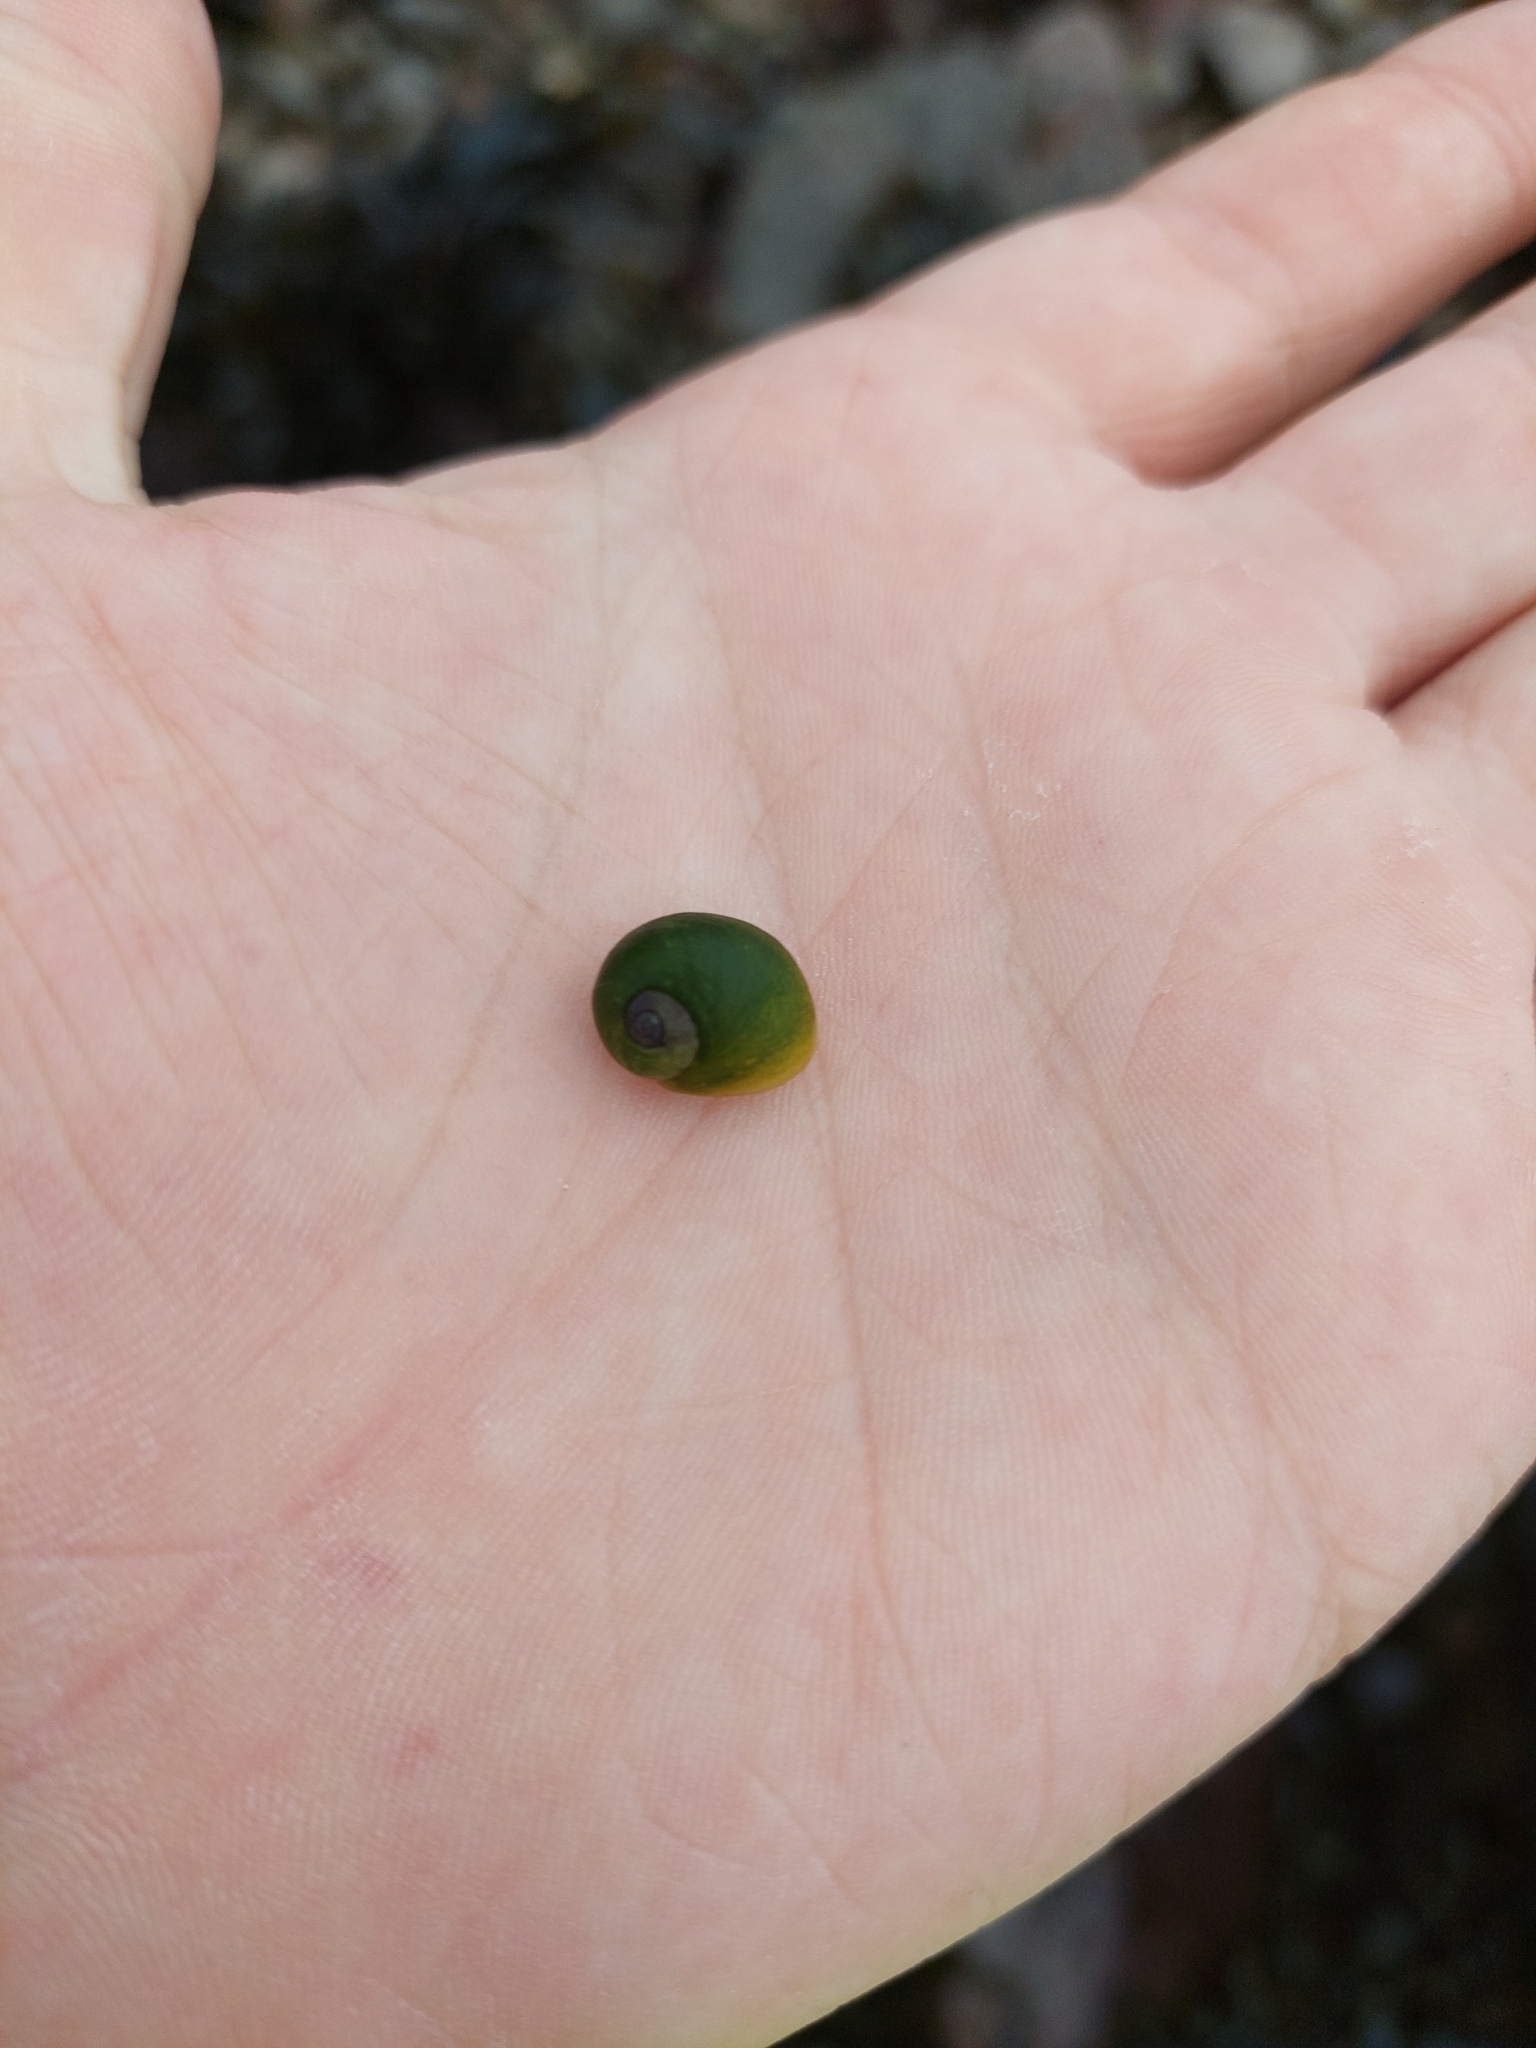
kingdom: Animalia
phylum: Mollusca
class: Gastropoda
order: Littorinimorpha
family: Littorinidae
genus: Littorina
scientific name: Littorina
